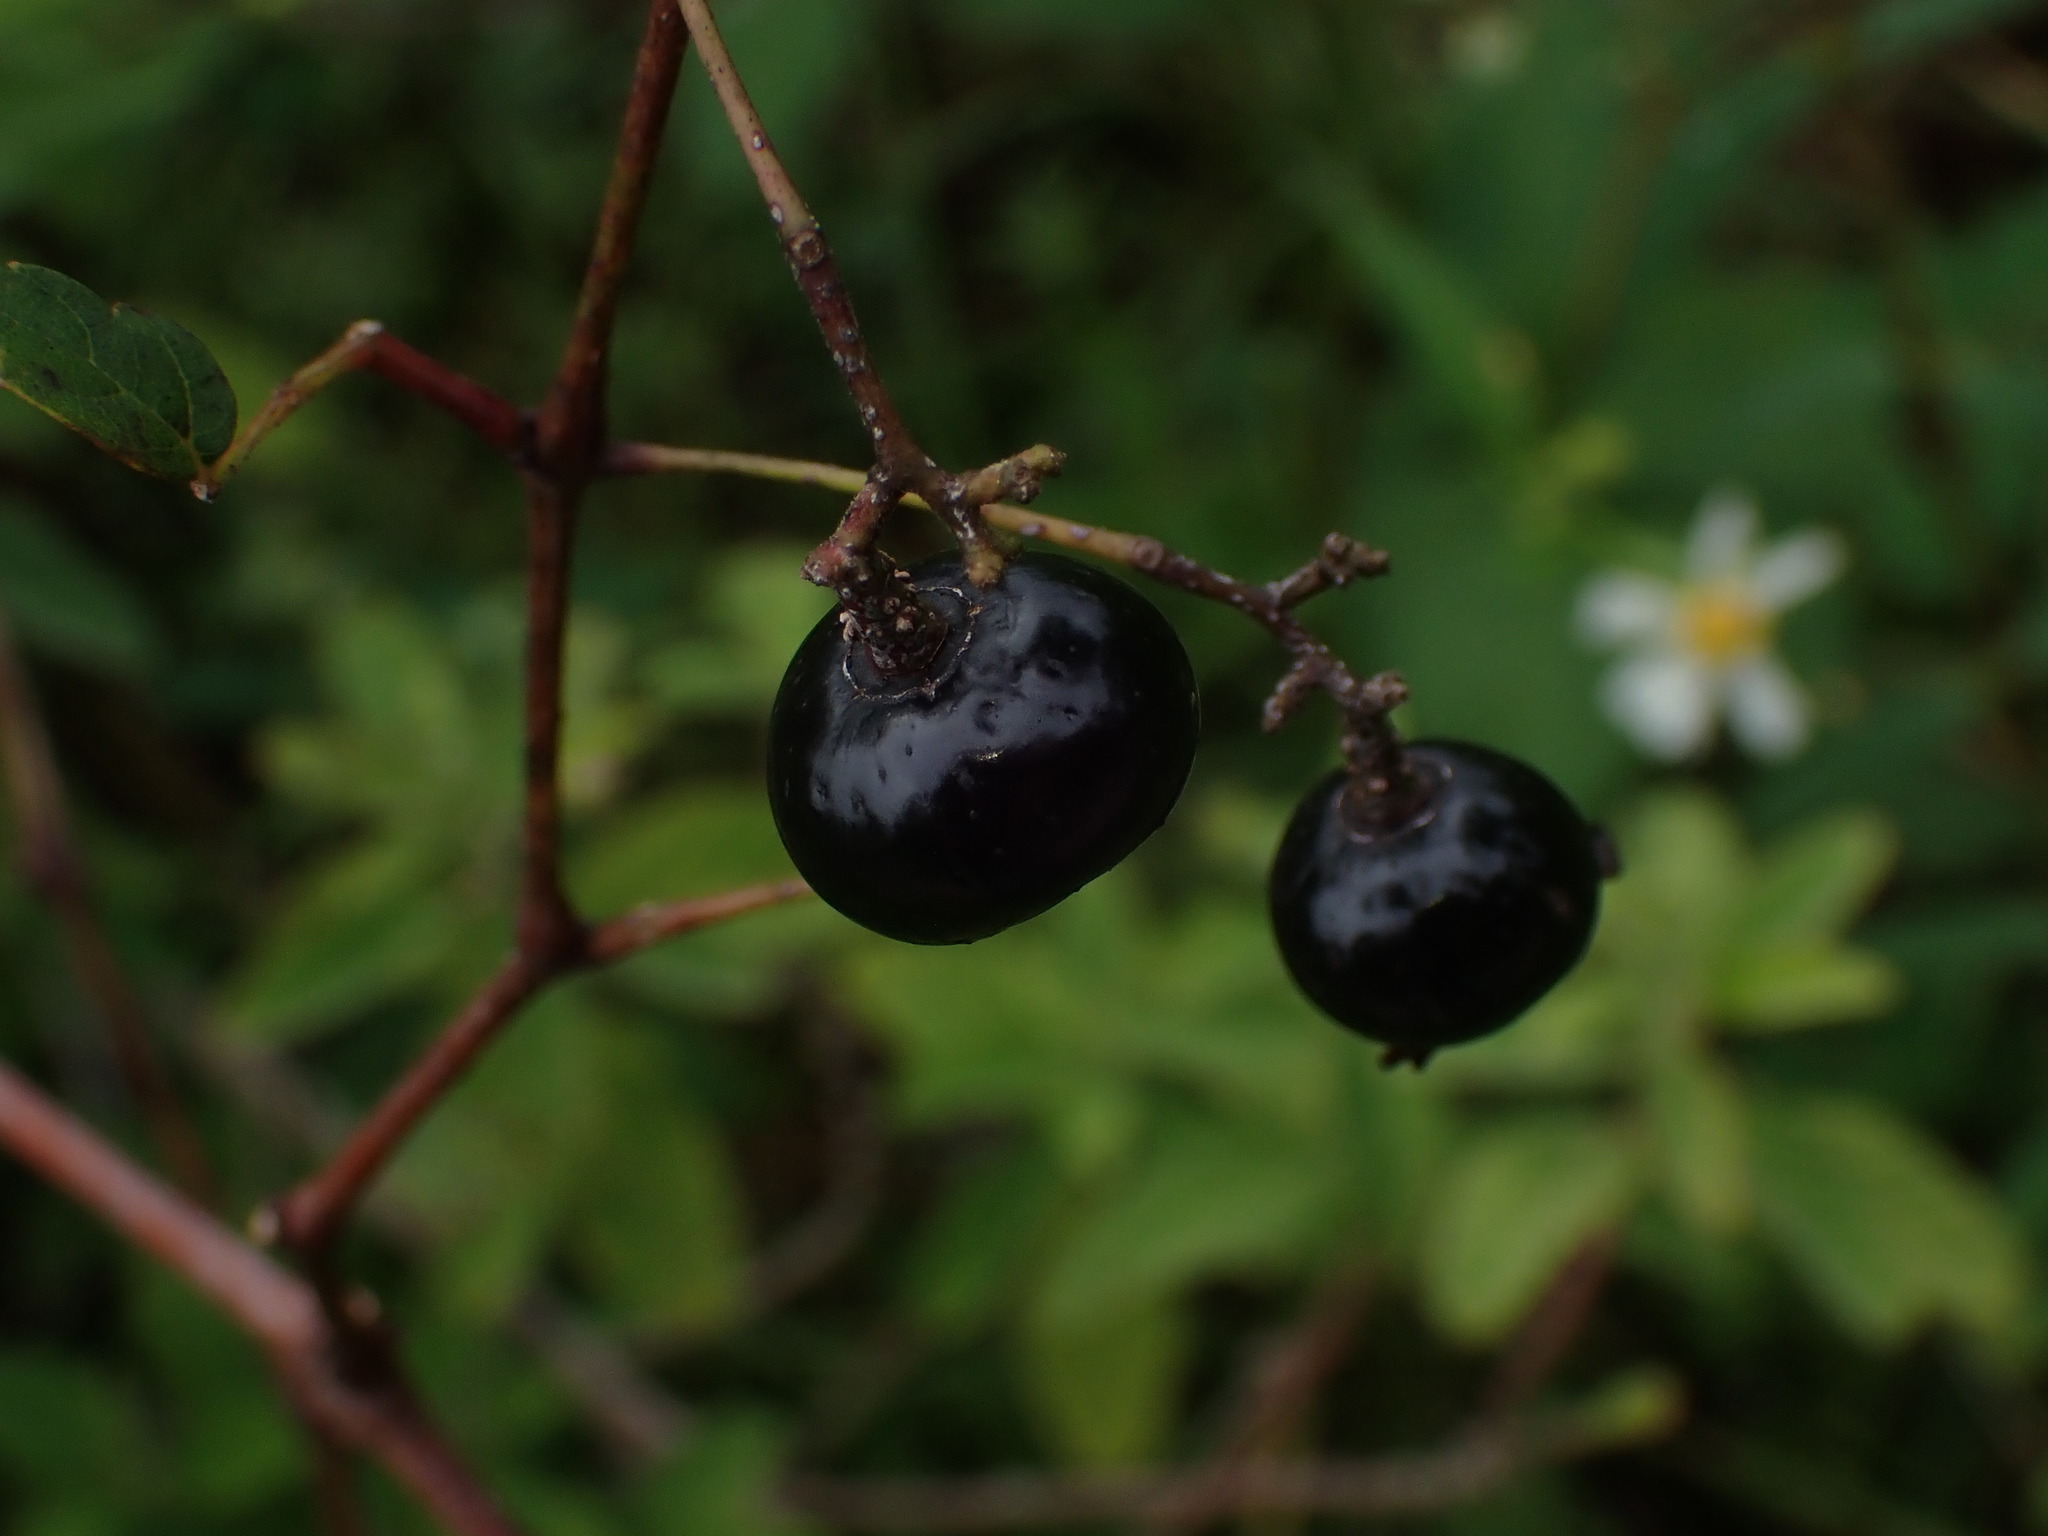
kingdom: Plantae
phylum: Tracheophyta
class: Magnoliopsida
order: Vitales
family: Vitaceae
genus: Nekemias
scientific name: Nekemias arborea
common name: Peppervine
